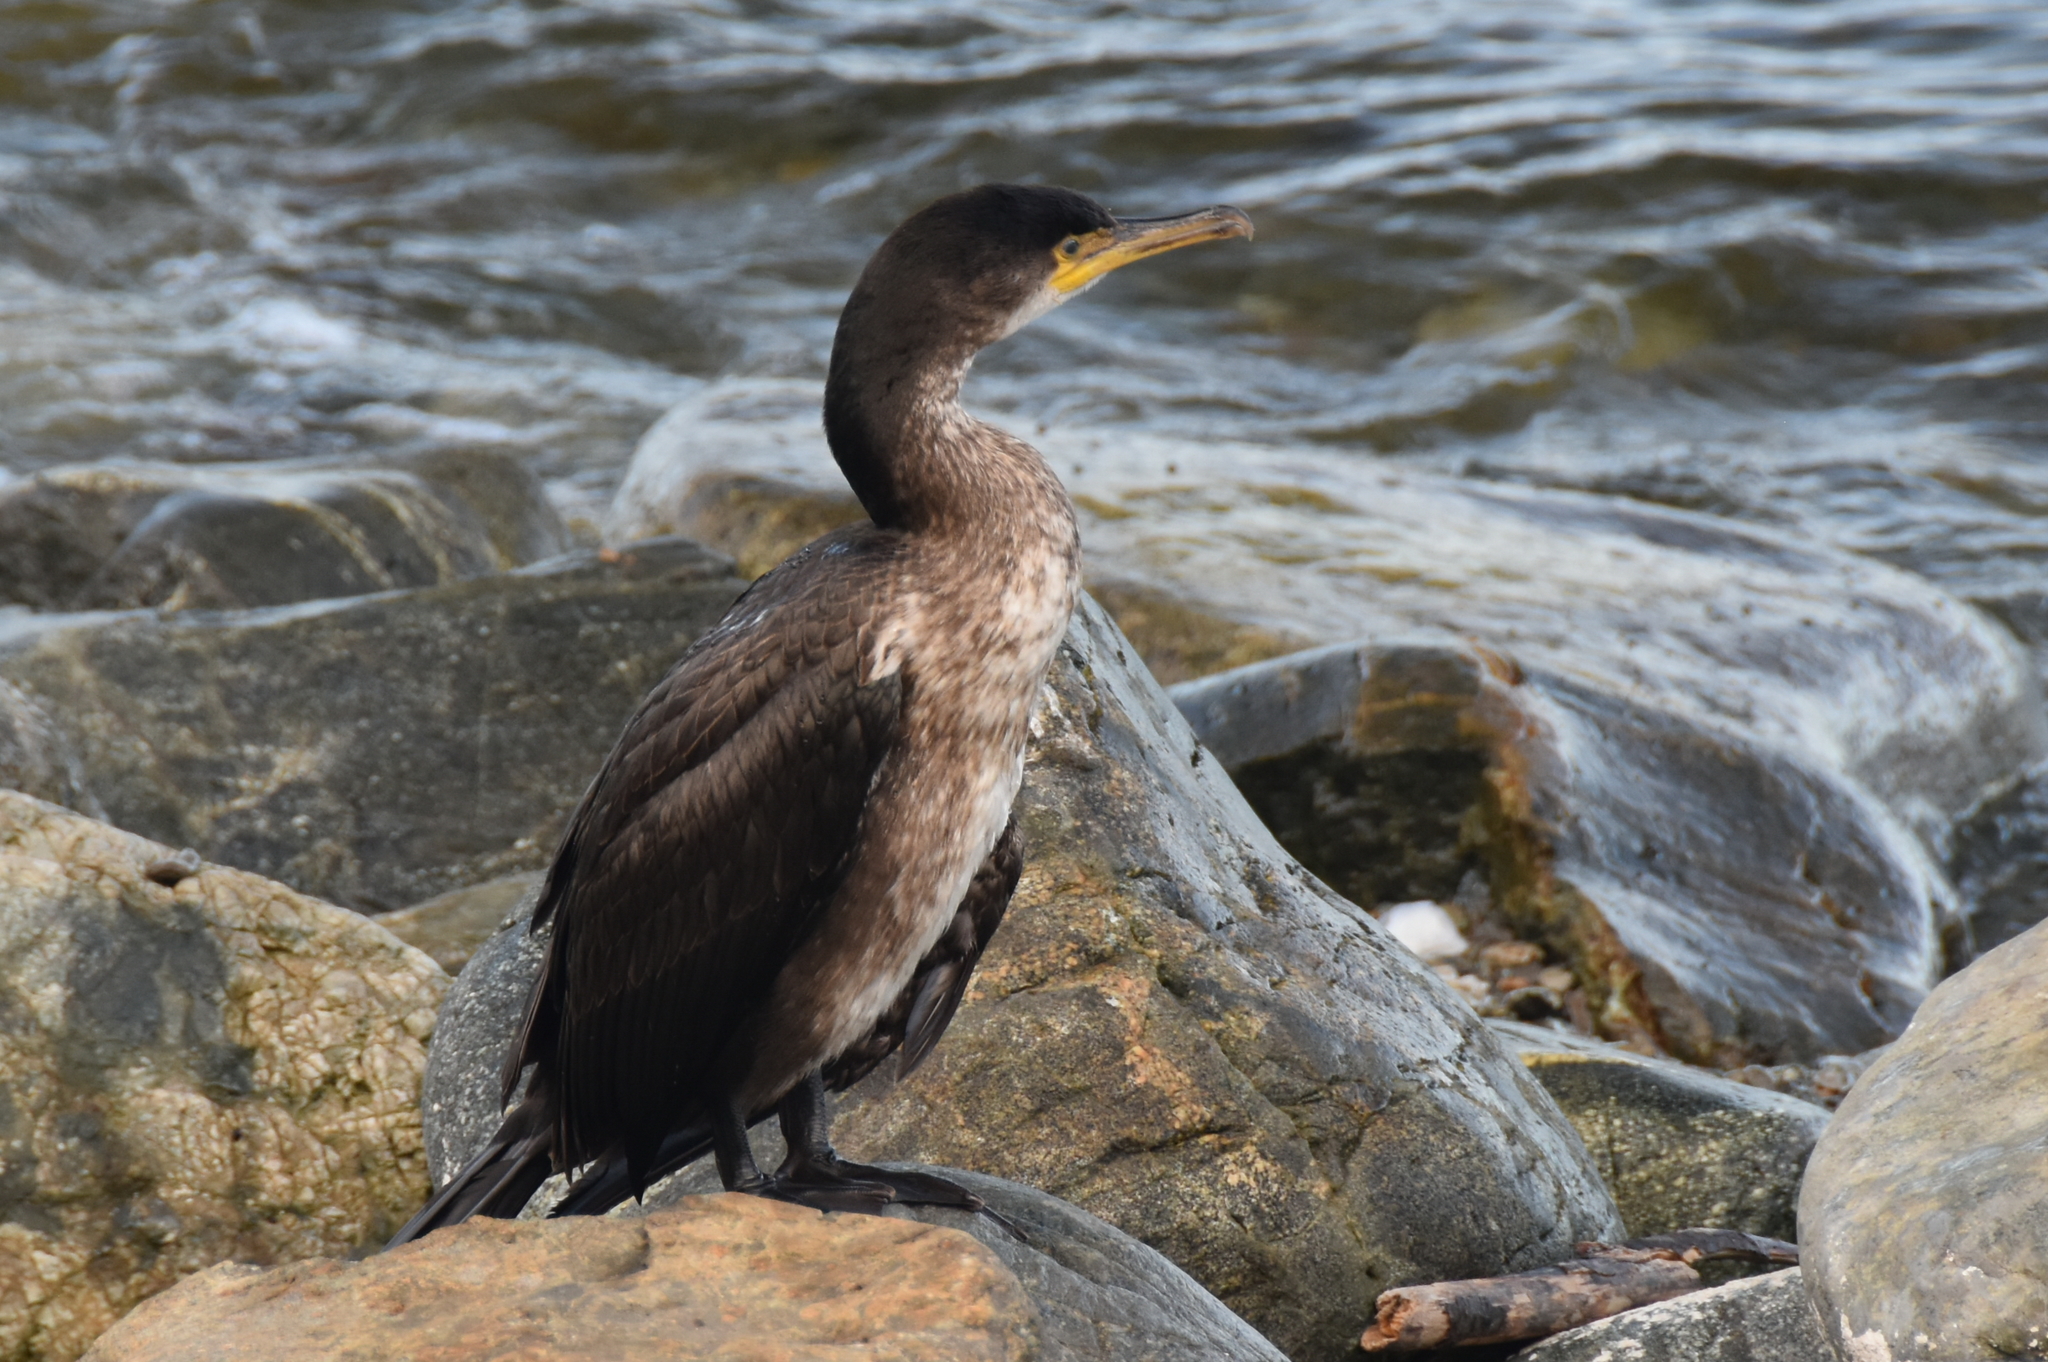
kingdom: Animalia
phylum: Chordata
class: Aves
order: Suliformes
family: Phalacrocoracidae
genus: Phalacrocorax
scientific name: Phalacrocorax carbo
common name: Great cormorant
